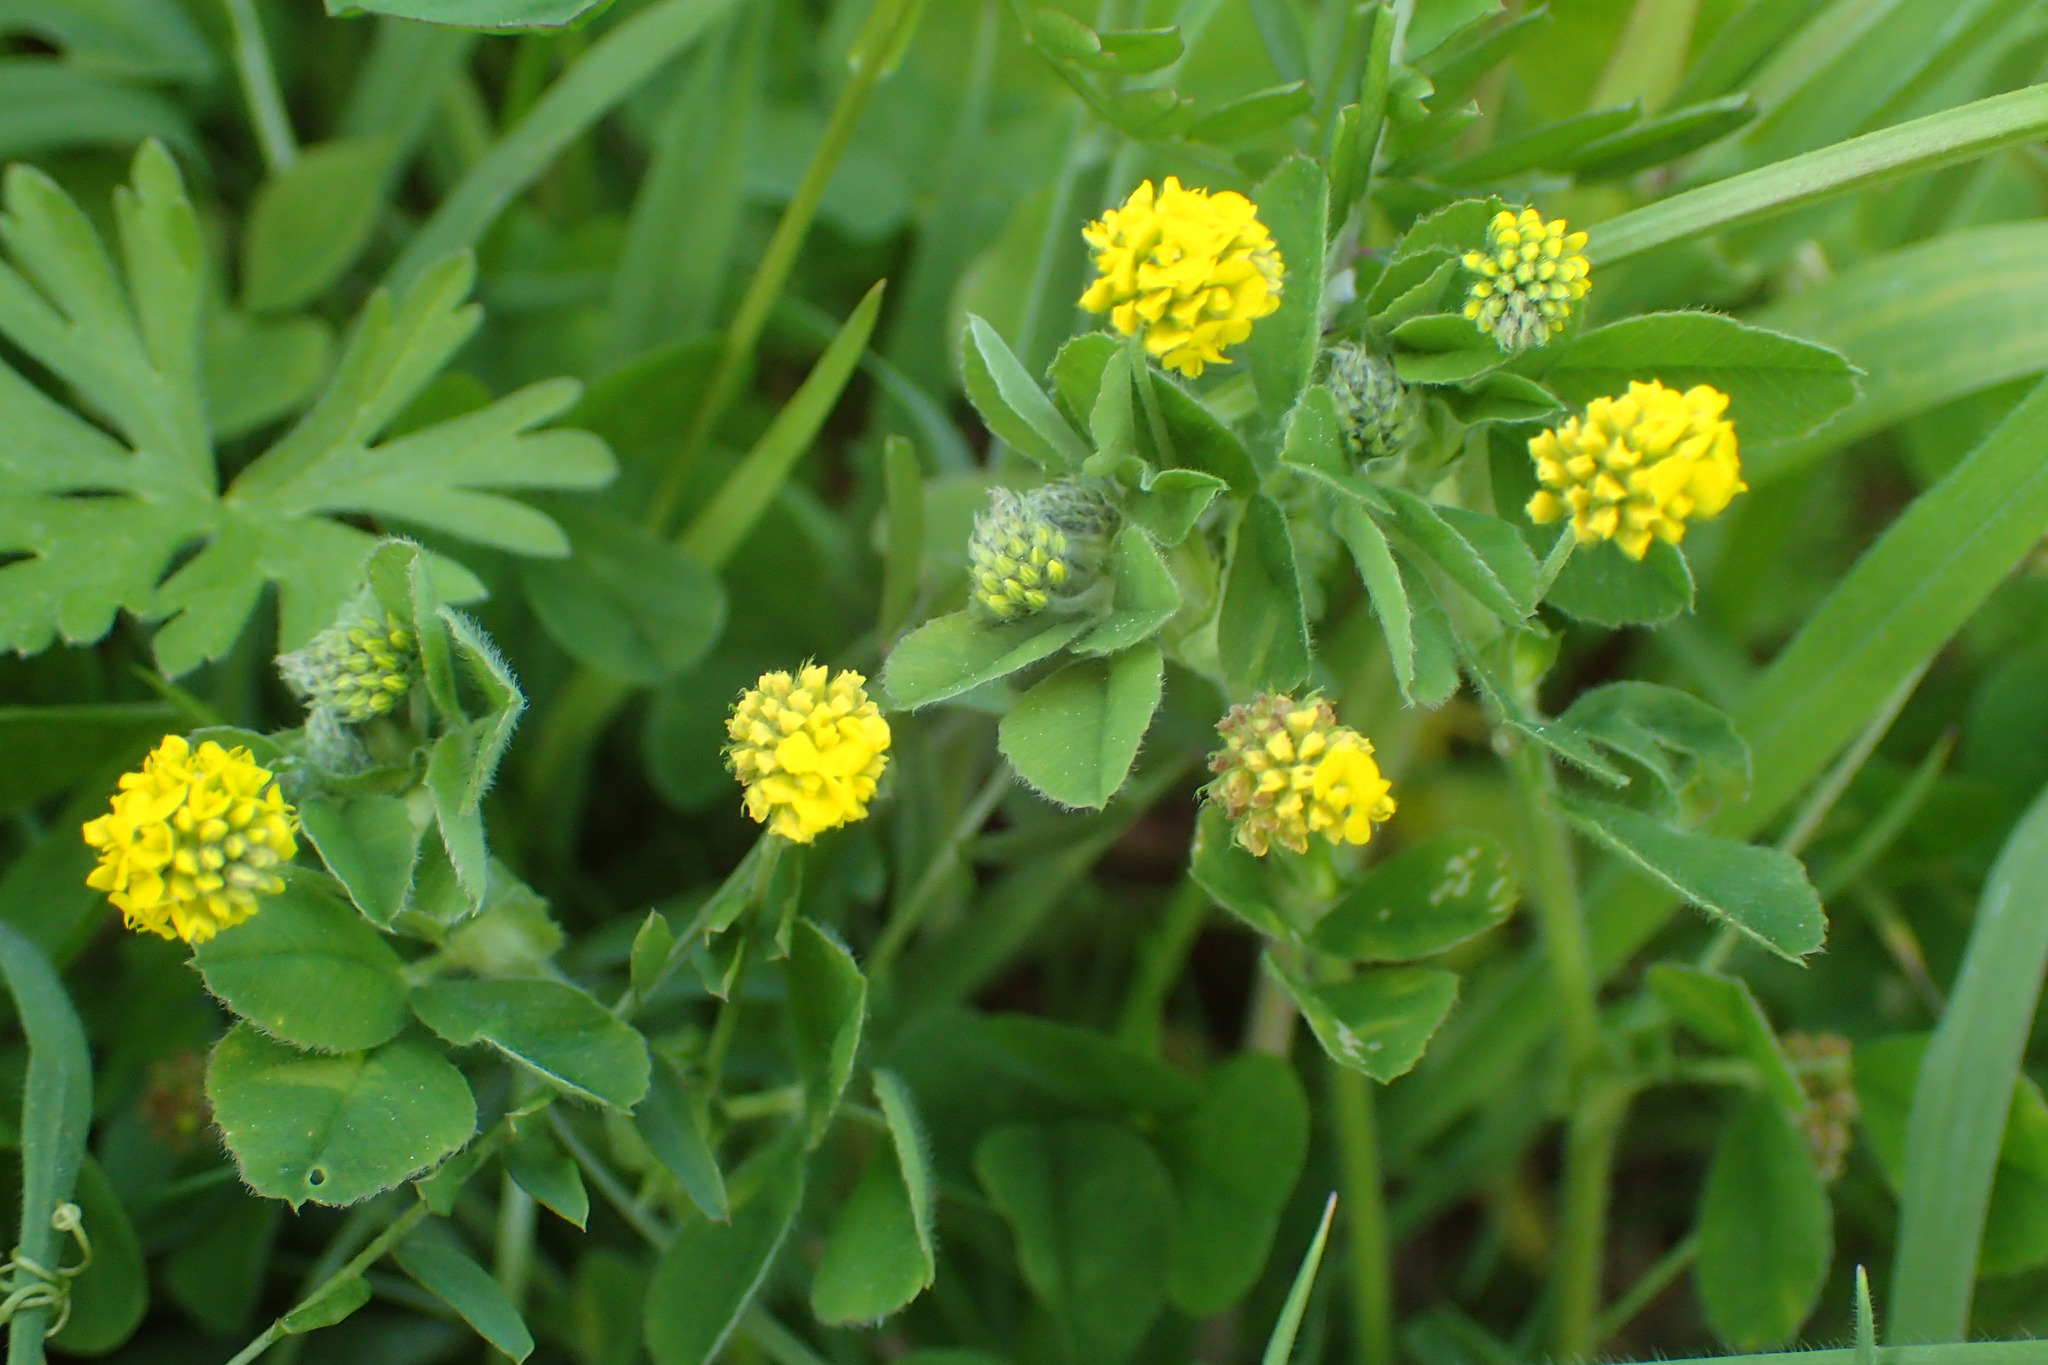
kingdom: Plantae
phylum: Tracheophyta
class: Magnoliopsida
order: Fabales
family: Fabaceae
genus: Medicago
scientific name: Medicago lupulina
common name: Black medick
